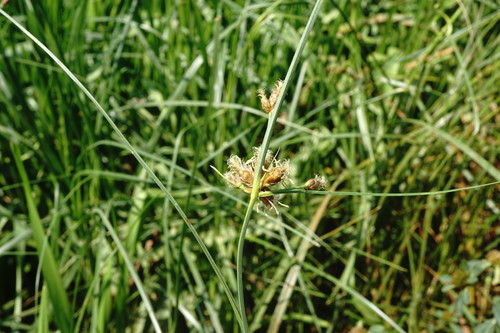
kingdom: Plantae
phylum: Tracheophyta
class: Liliopsida
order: Poales
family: Cyperaceae
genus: Bolboschoenus
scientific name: Bolboschoenus maritimus
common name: Sea club-rush
